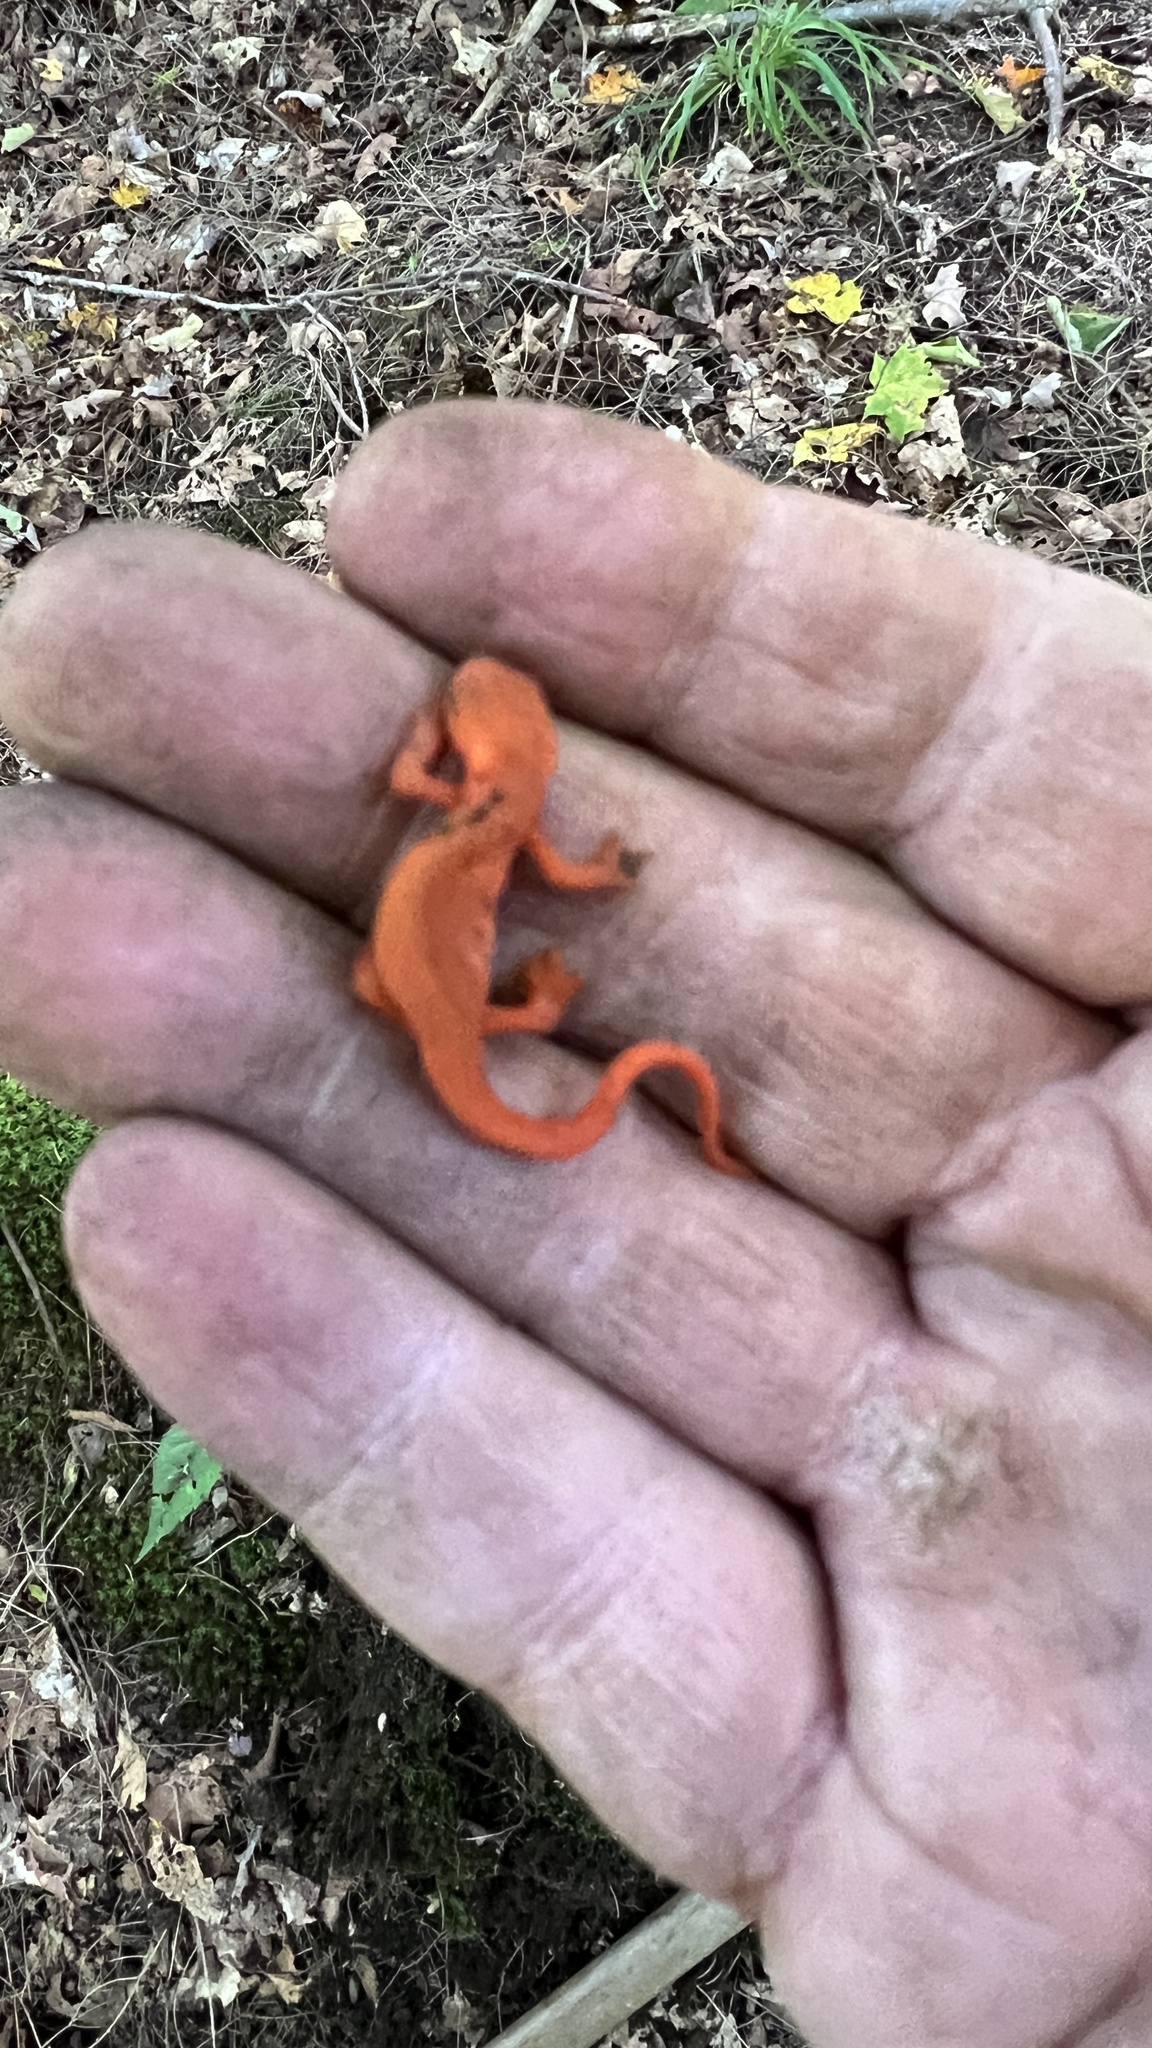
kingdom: Animalia
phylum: Chordata
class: Amphibia
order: Caudata
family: Salamandridae
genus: Notophthalmus
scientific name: Notophthalmus viridescens
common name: Eastern newt
